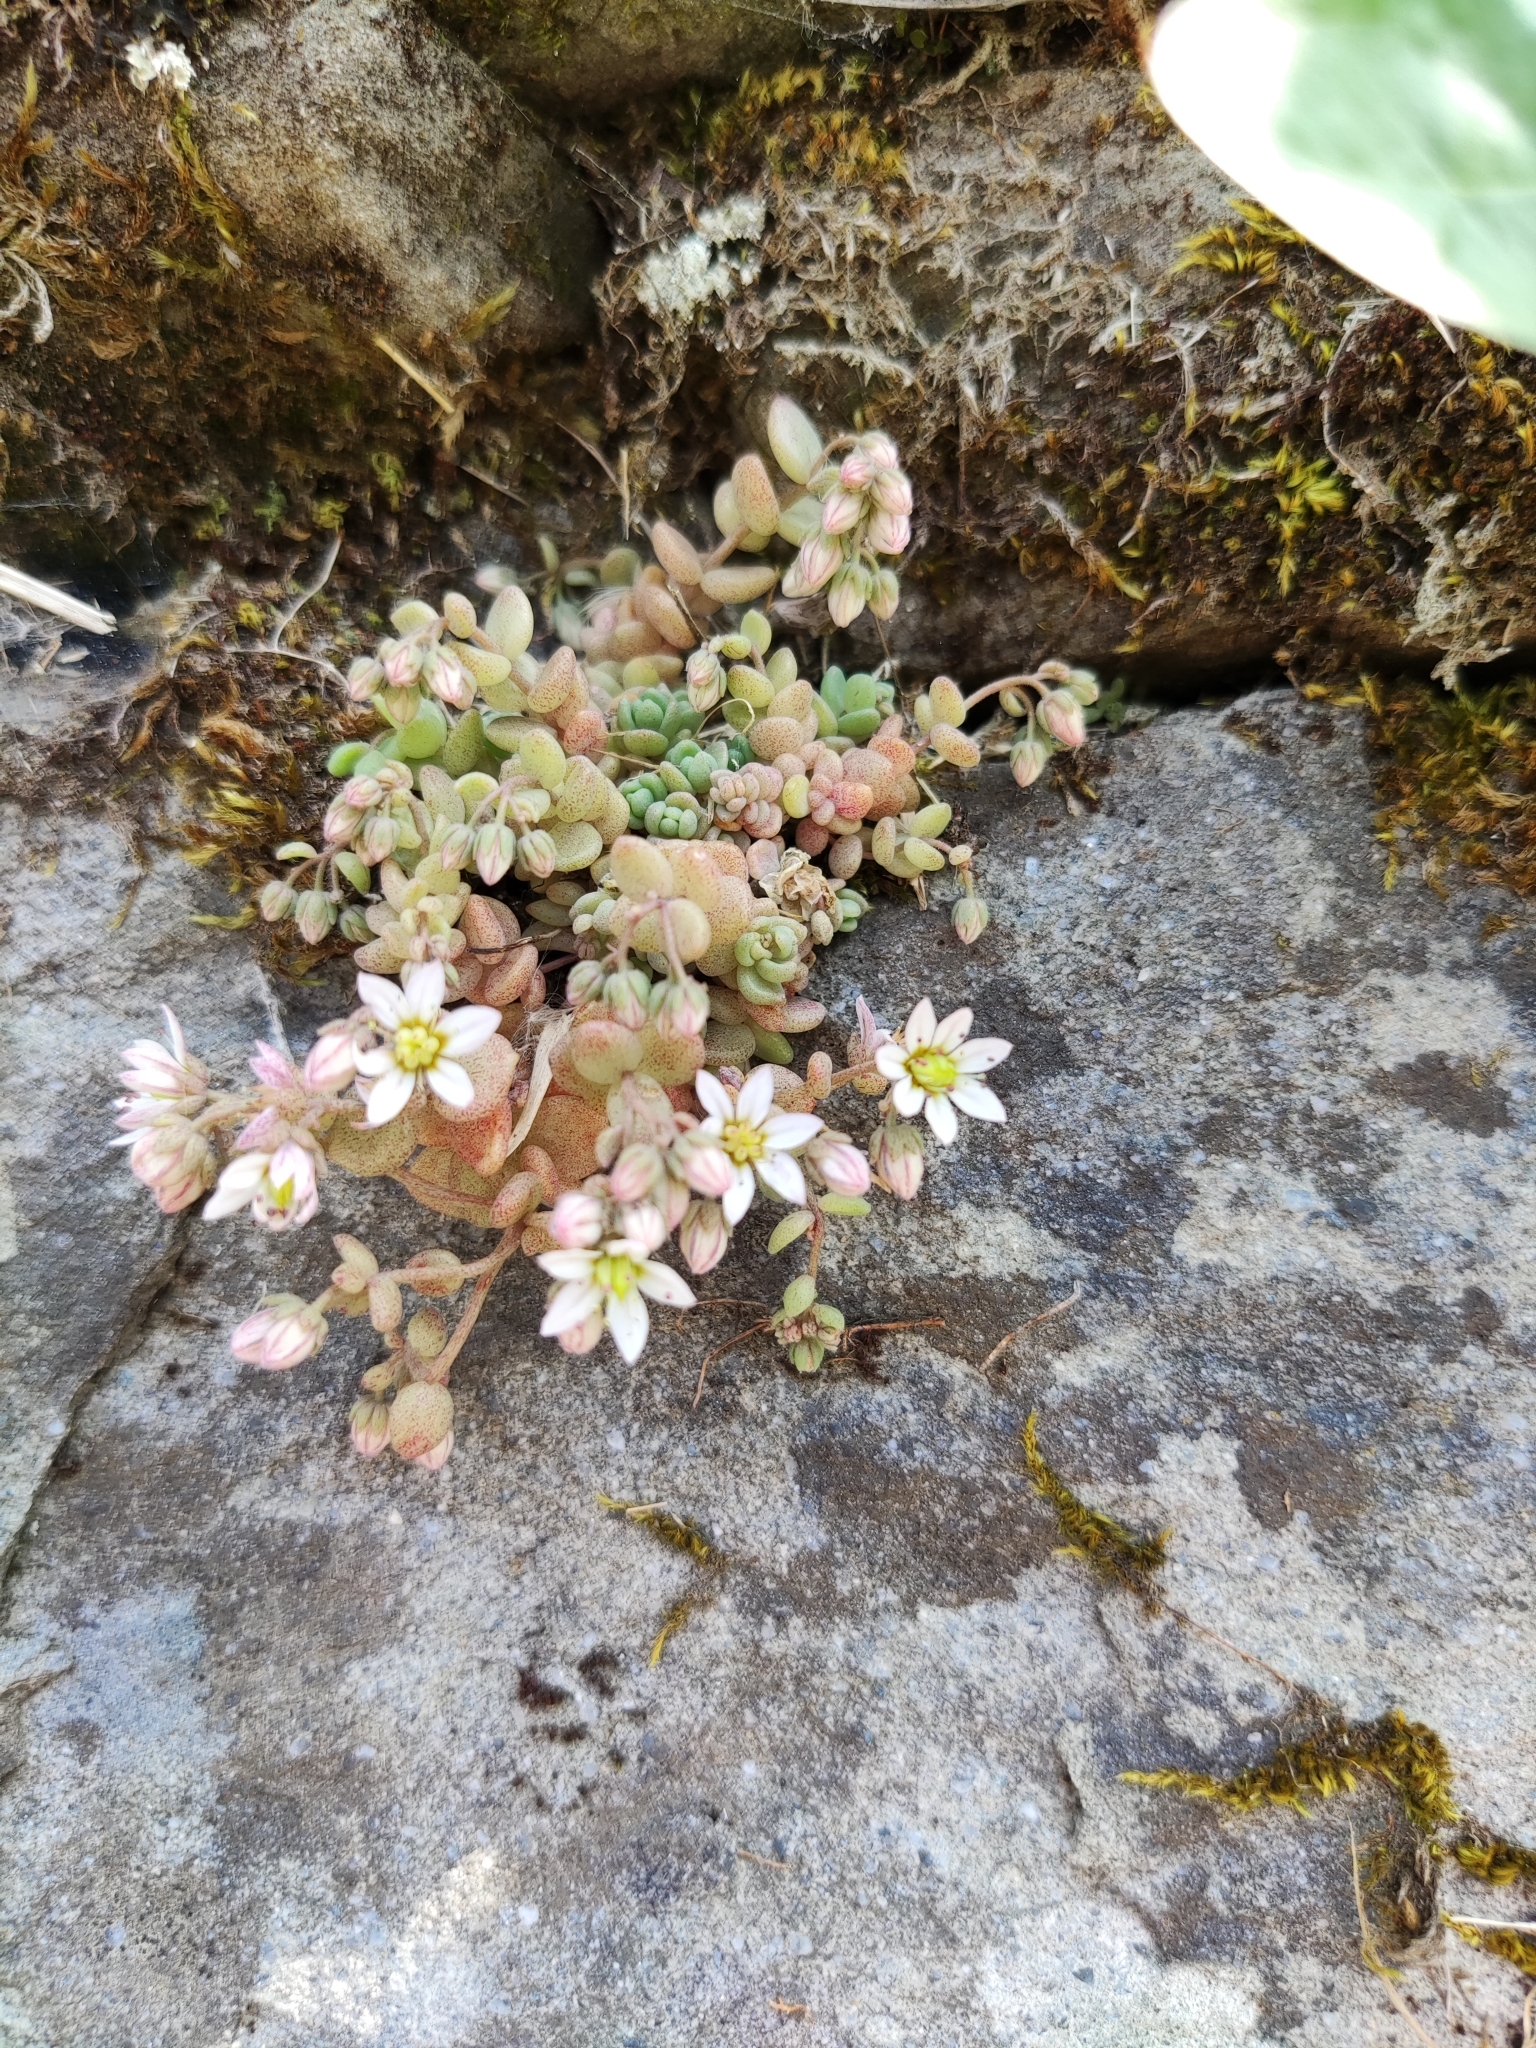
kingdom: Plantae
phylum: Tracheophyta
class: Magnoliopsida
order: Saxifragales
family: Crassulaceae
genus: Sedum
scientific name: Sedum dasyphyllum
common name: Thick-leaf stonecrop
